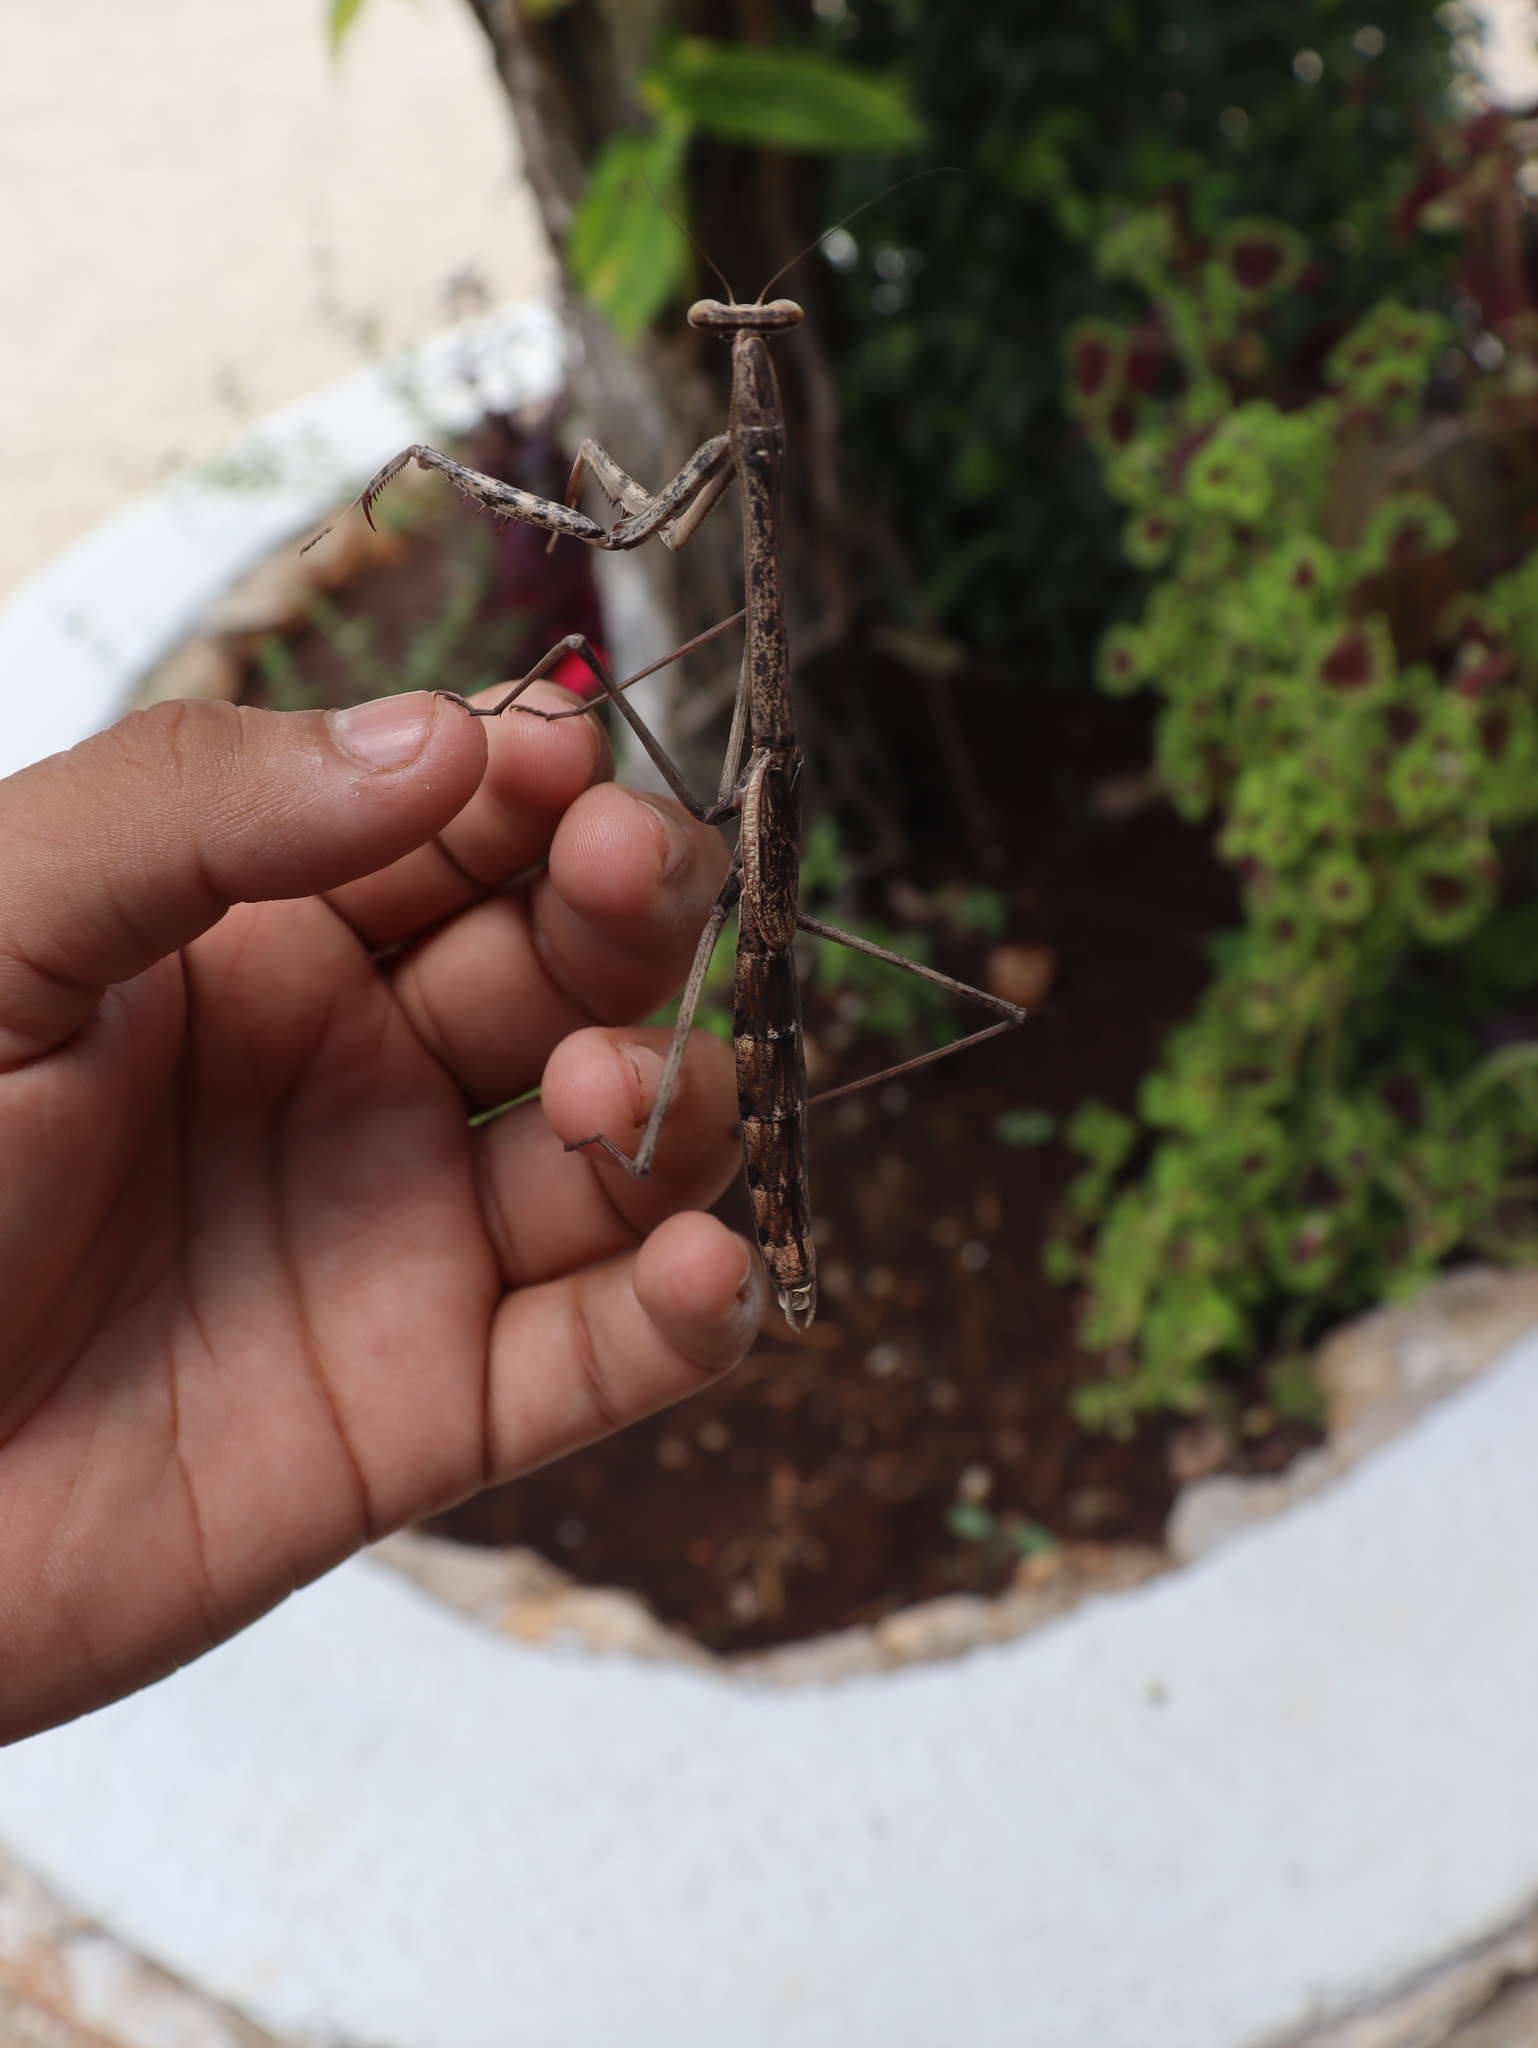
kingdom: Animalia
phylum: Arthropoda
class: Insecta
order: Mantodea
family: Mantidae
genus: Phasmomantis
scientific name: Phasmomantis sumichrasti
